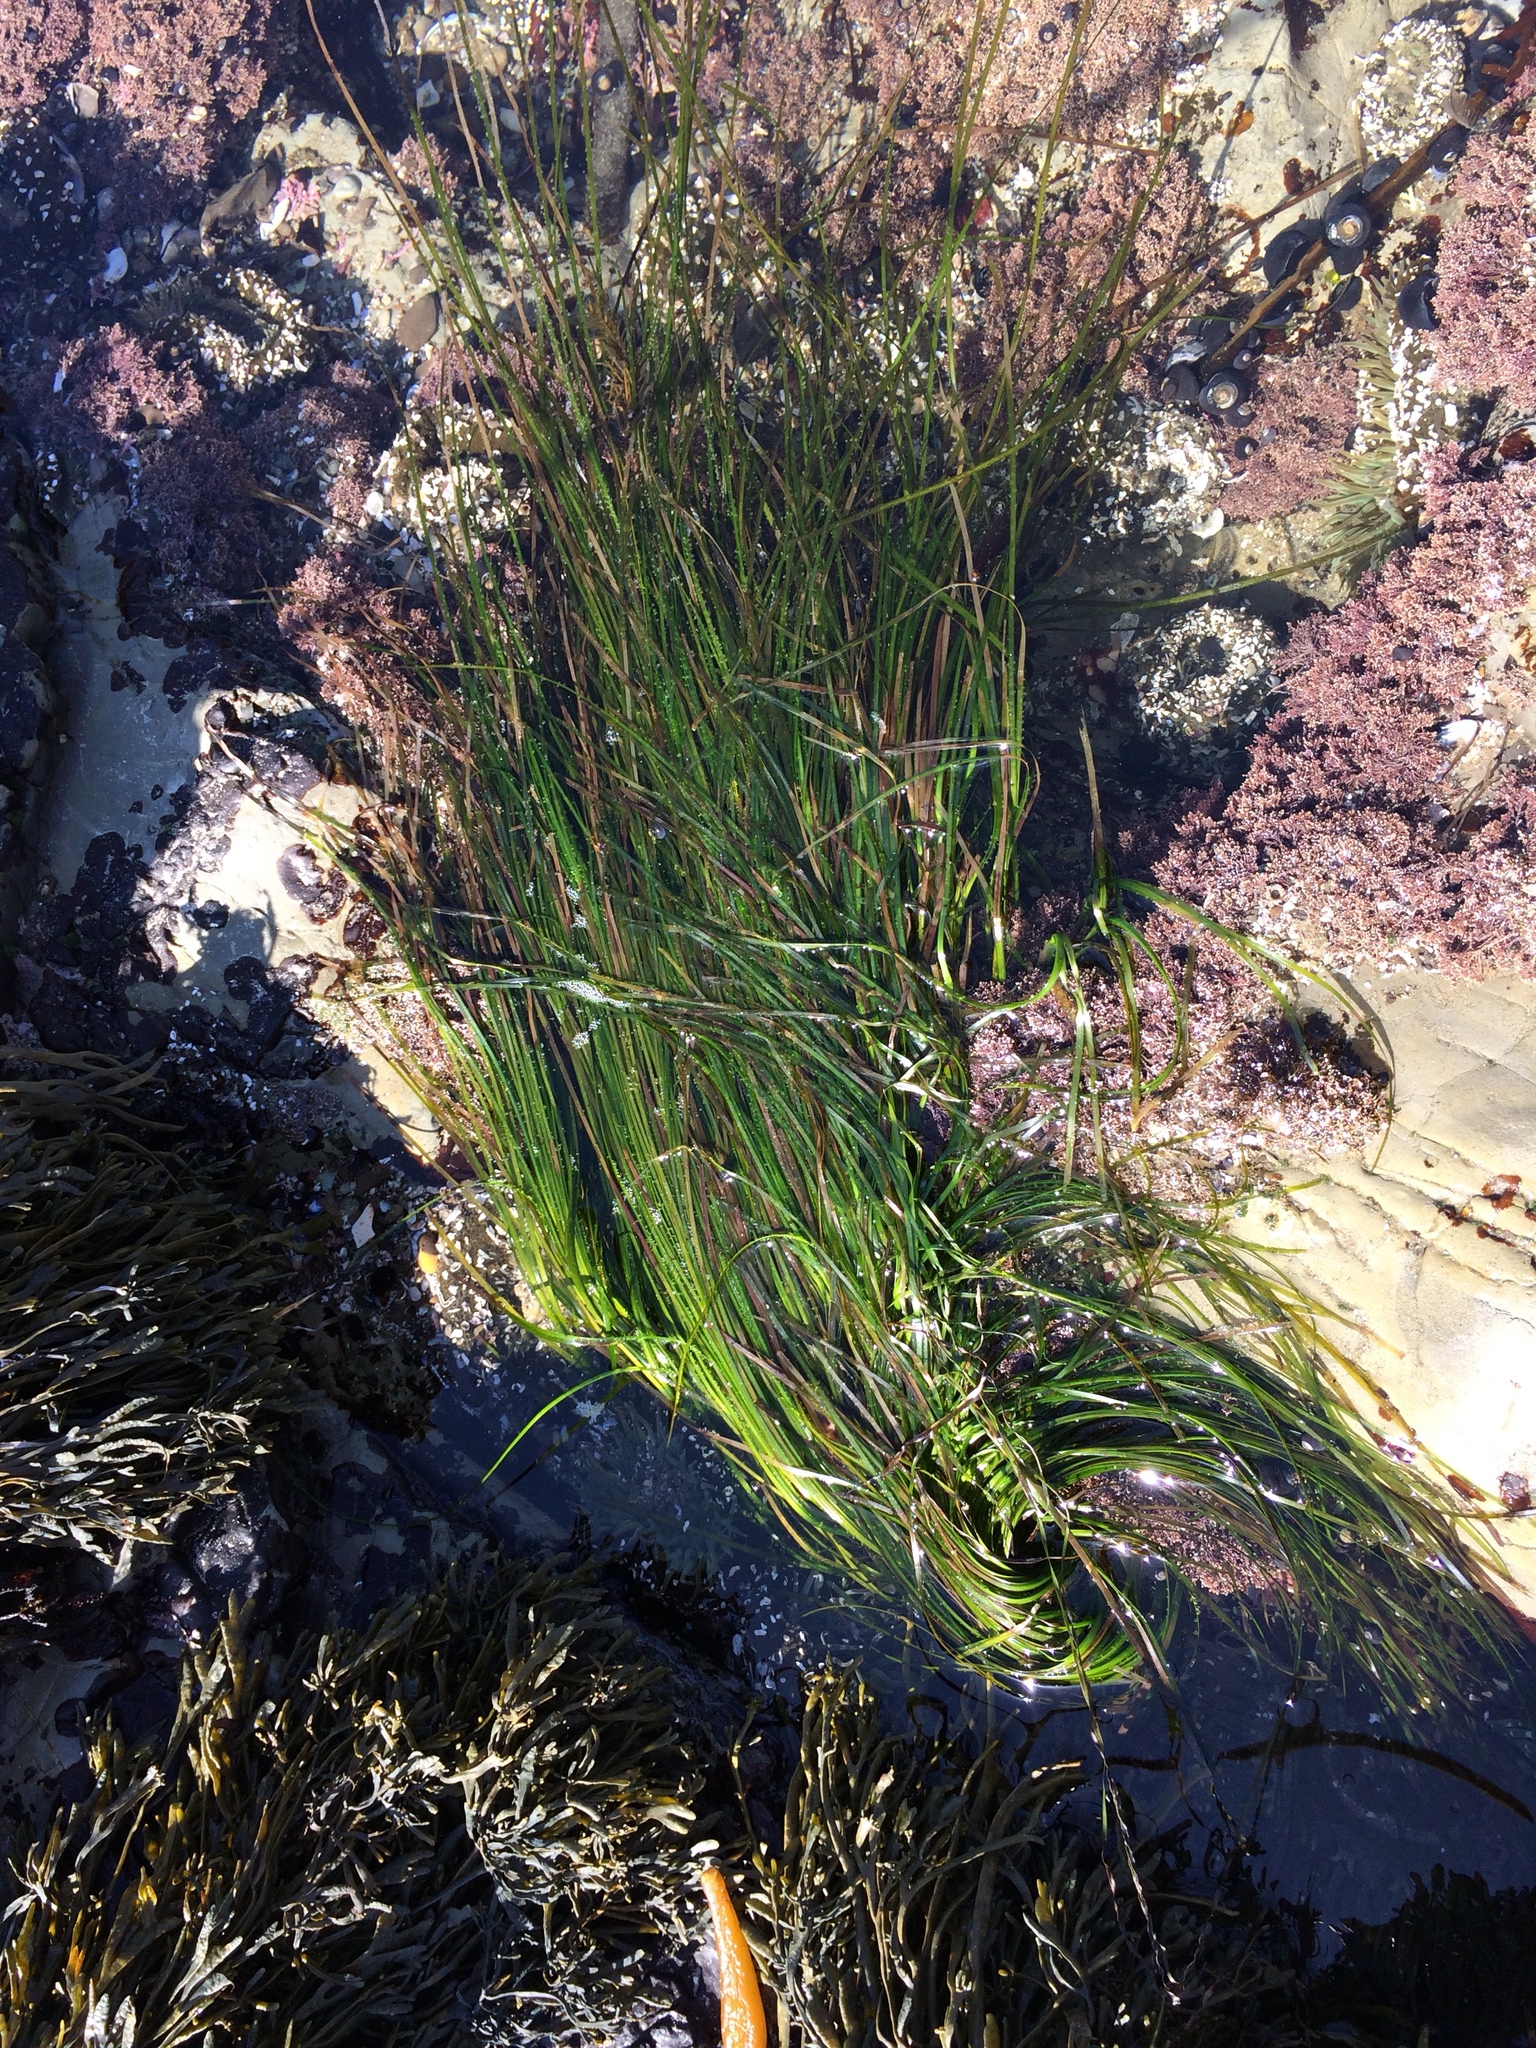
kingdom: Plantae
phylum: Tracheophyta
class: Liliopsida
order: Alismatales
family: Zosteraceae
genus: Phyllospadix
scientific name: Phyllospadix torreyi
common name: Surfgrass
